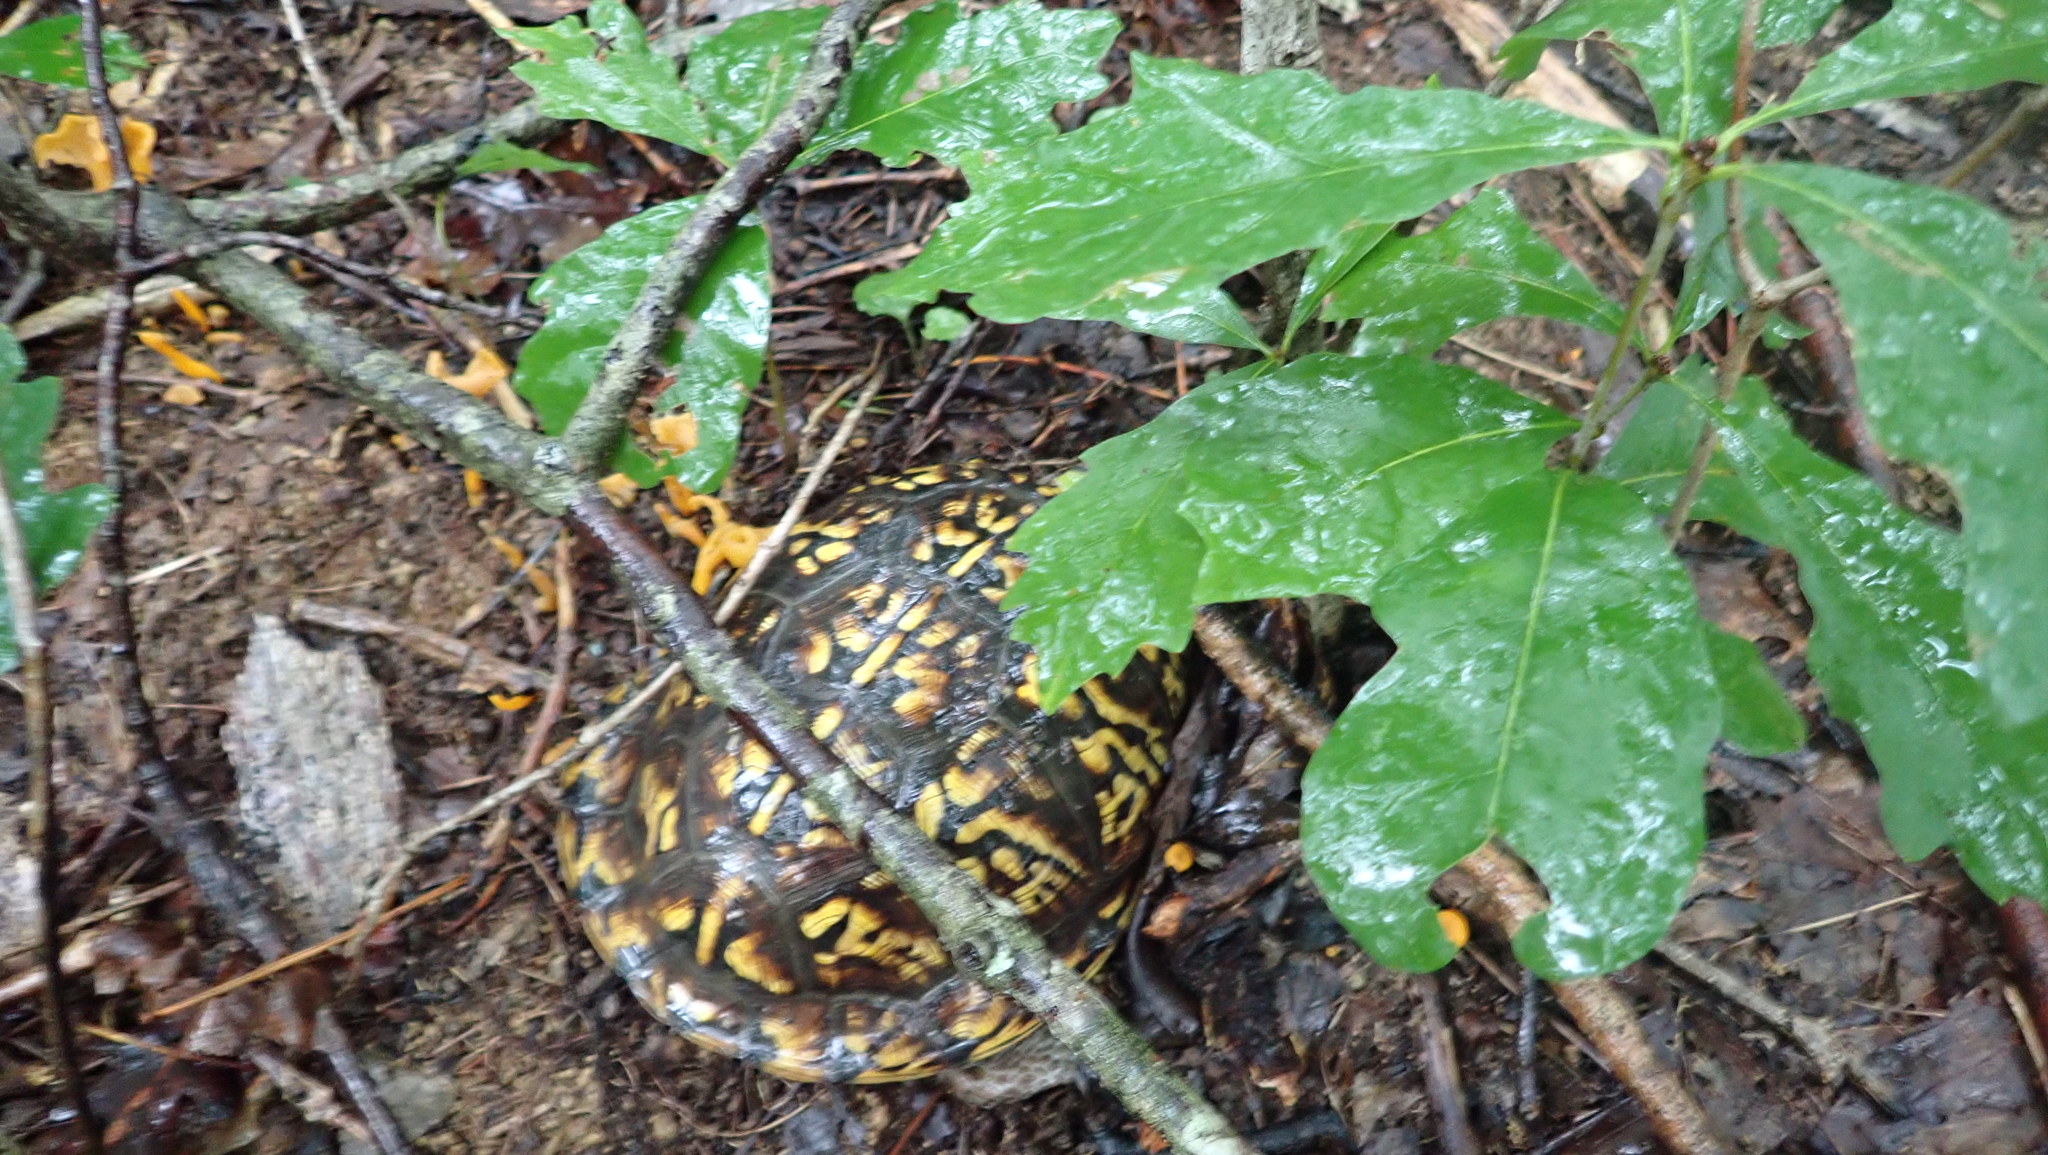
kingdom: Animalia
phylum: Chordata
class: Testudines
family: Emydidae
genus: Terrapene
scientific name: Terrapene carolina
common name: Common box turtle
